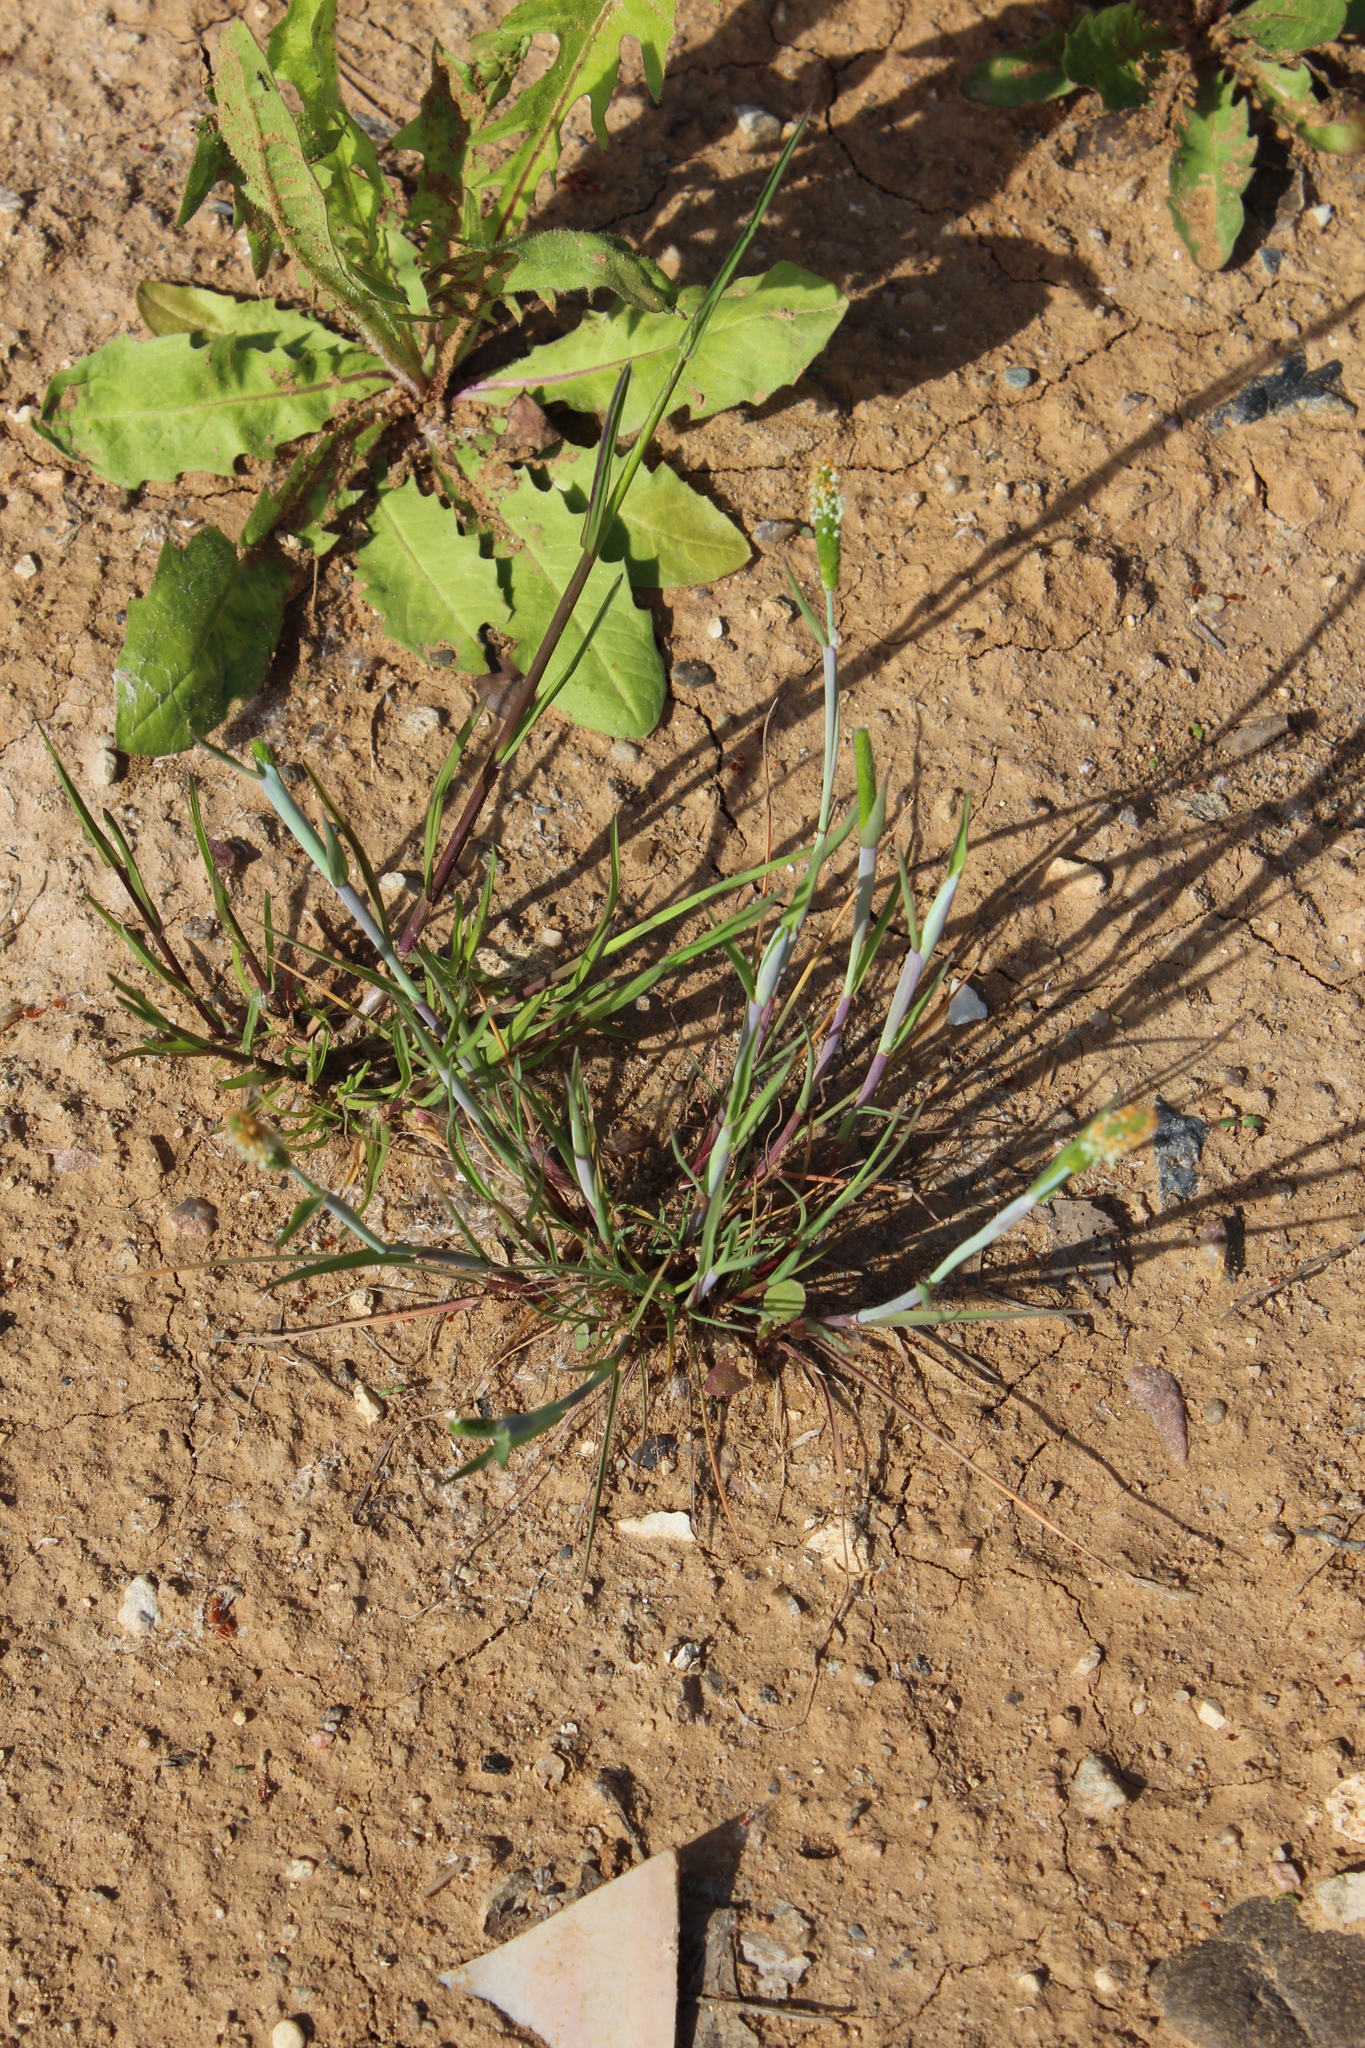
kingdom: Plantae
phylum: Tracheophyta
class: Liliopsida
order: Poales
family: Poaceae
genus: Alopecurus
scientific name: Alopecurus aequalis
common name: Orange foxtail
